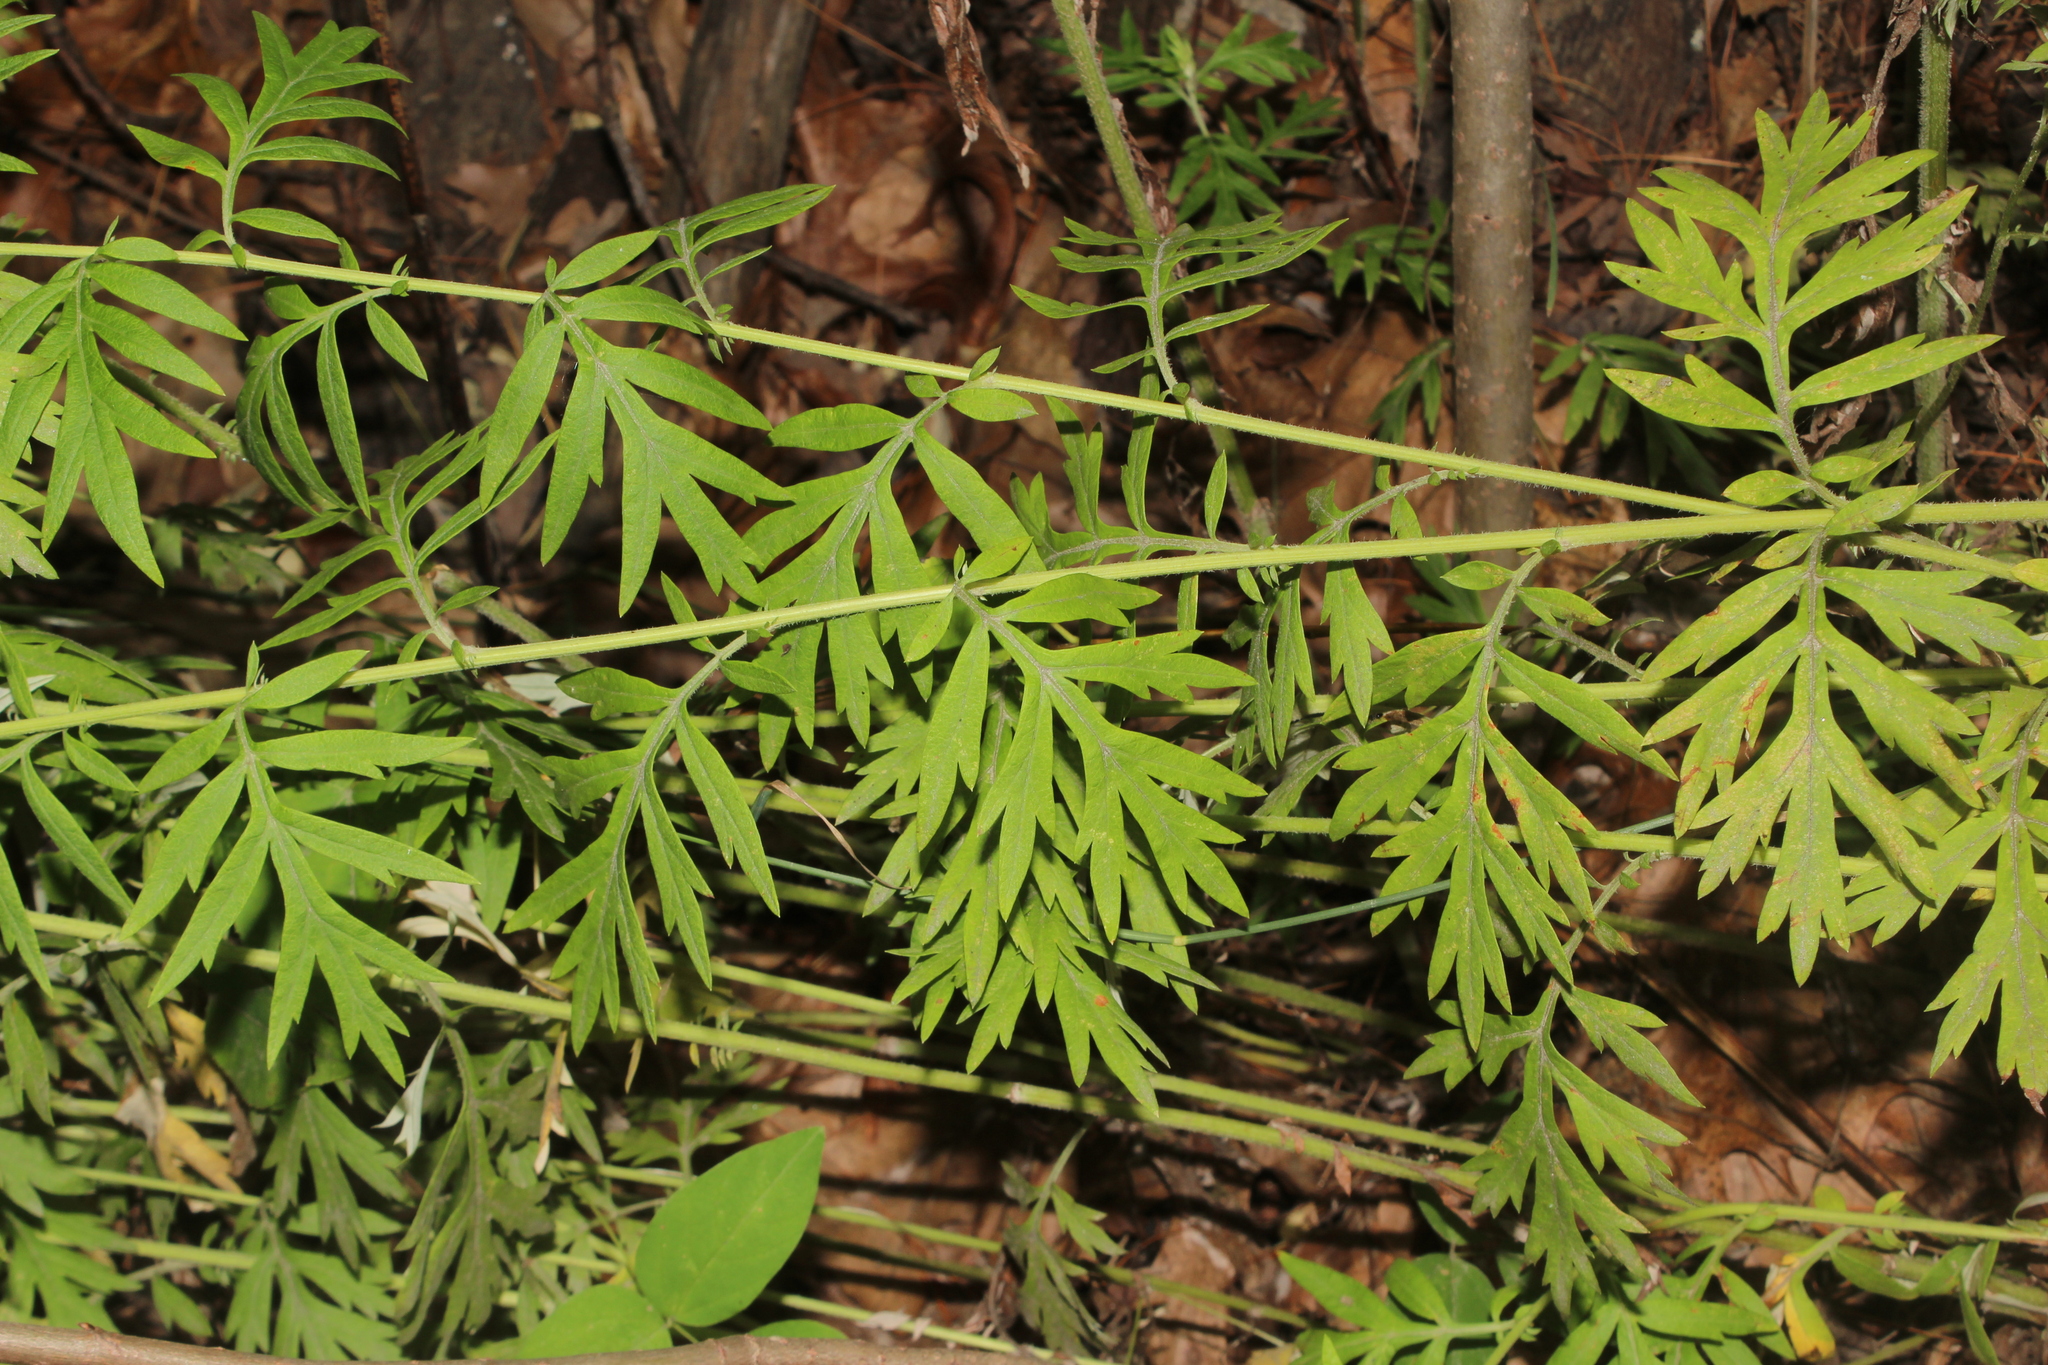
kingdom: Plantae
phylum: Tracheophyta
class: Magnoliopsida
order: Asterales
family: Asteraceae
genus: Artemisia
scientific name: Artemisia vulgaris
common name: Mugwort
